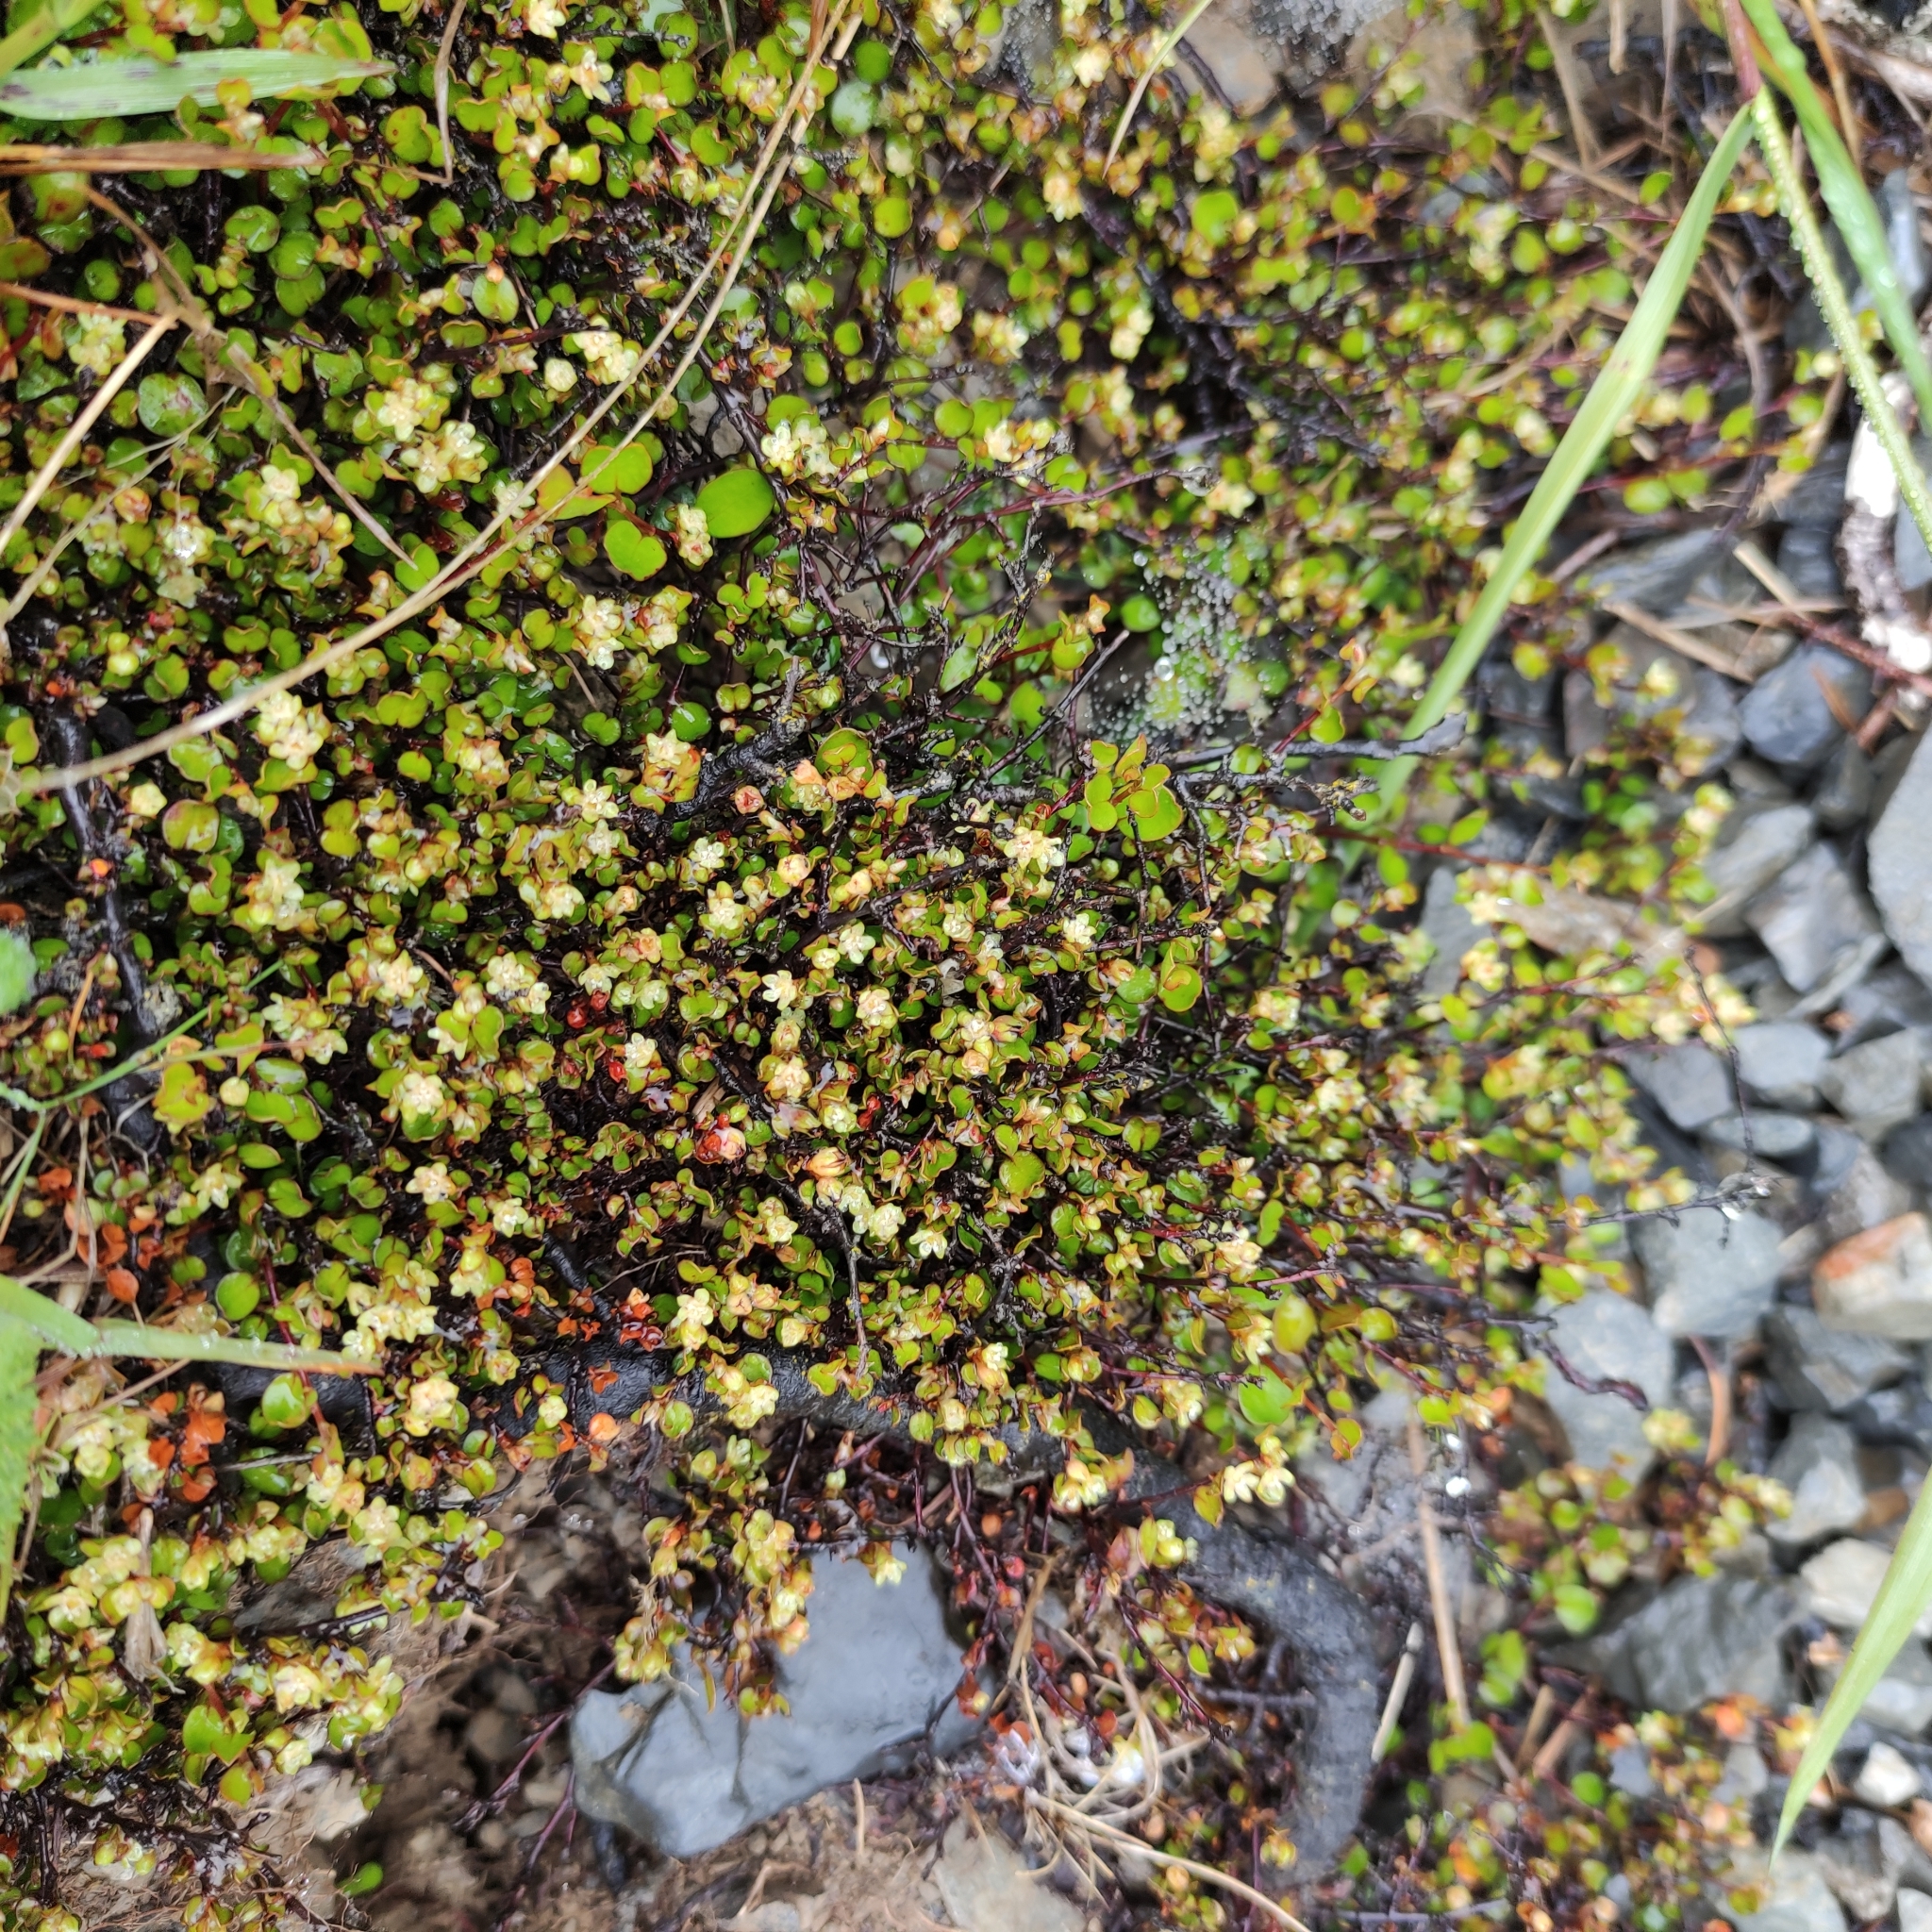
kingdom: Plantae
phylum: Tracheophyta
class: Magnoliopsida
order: Caryophyllales
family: Polygonaceae
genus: Muehlenbeckia
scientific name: Muehlenbeckia axillaris
